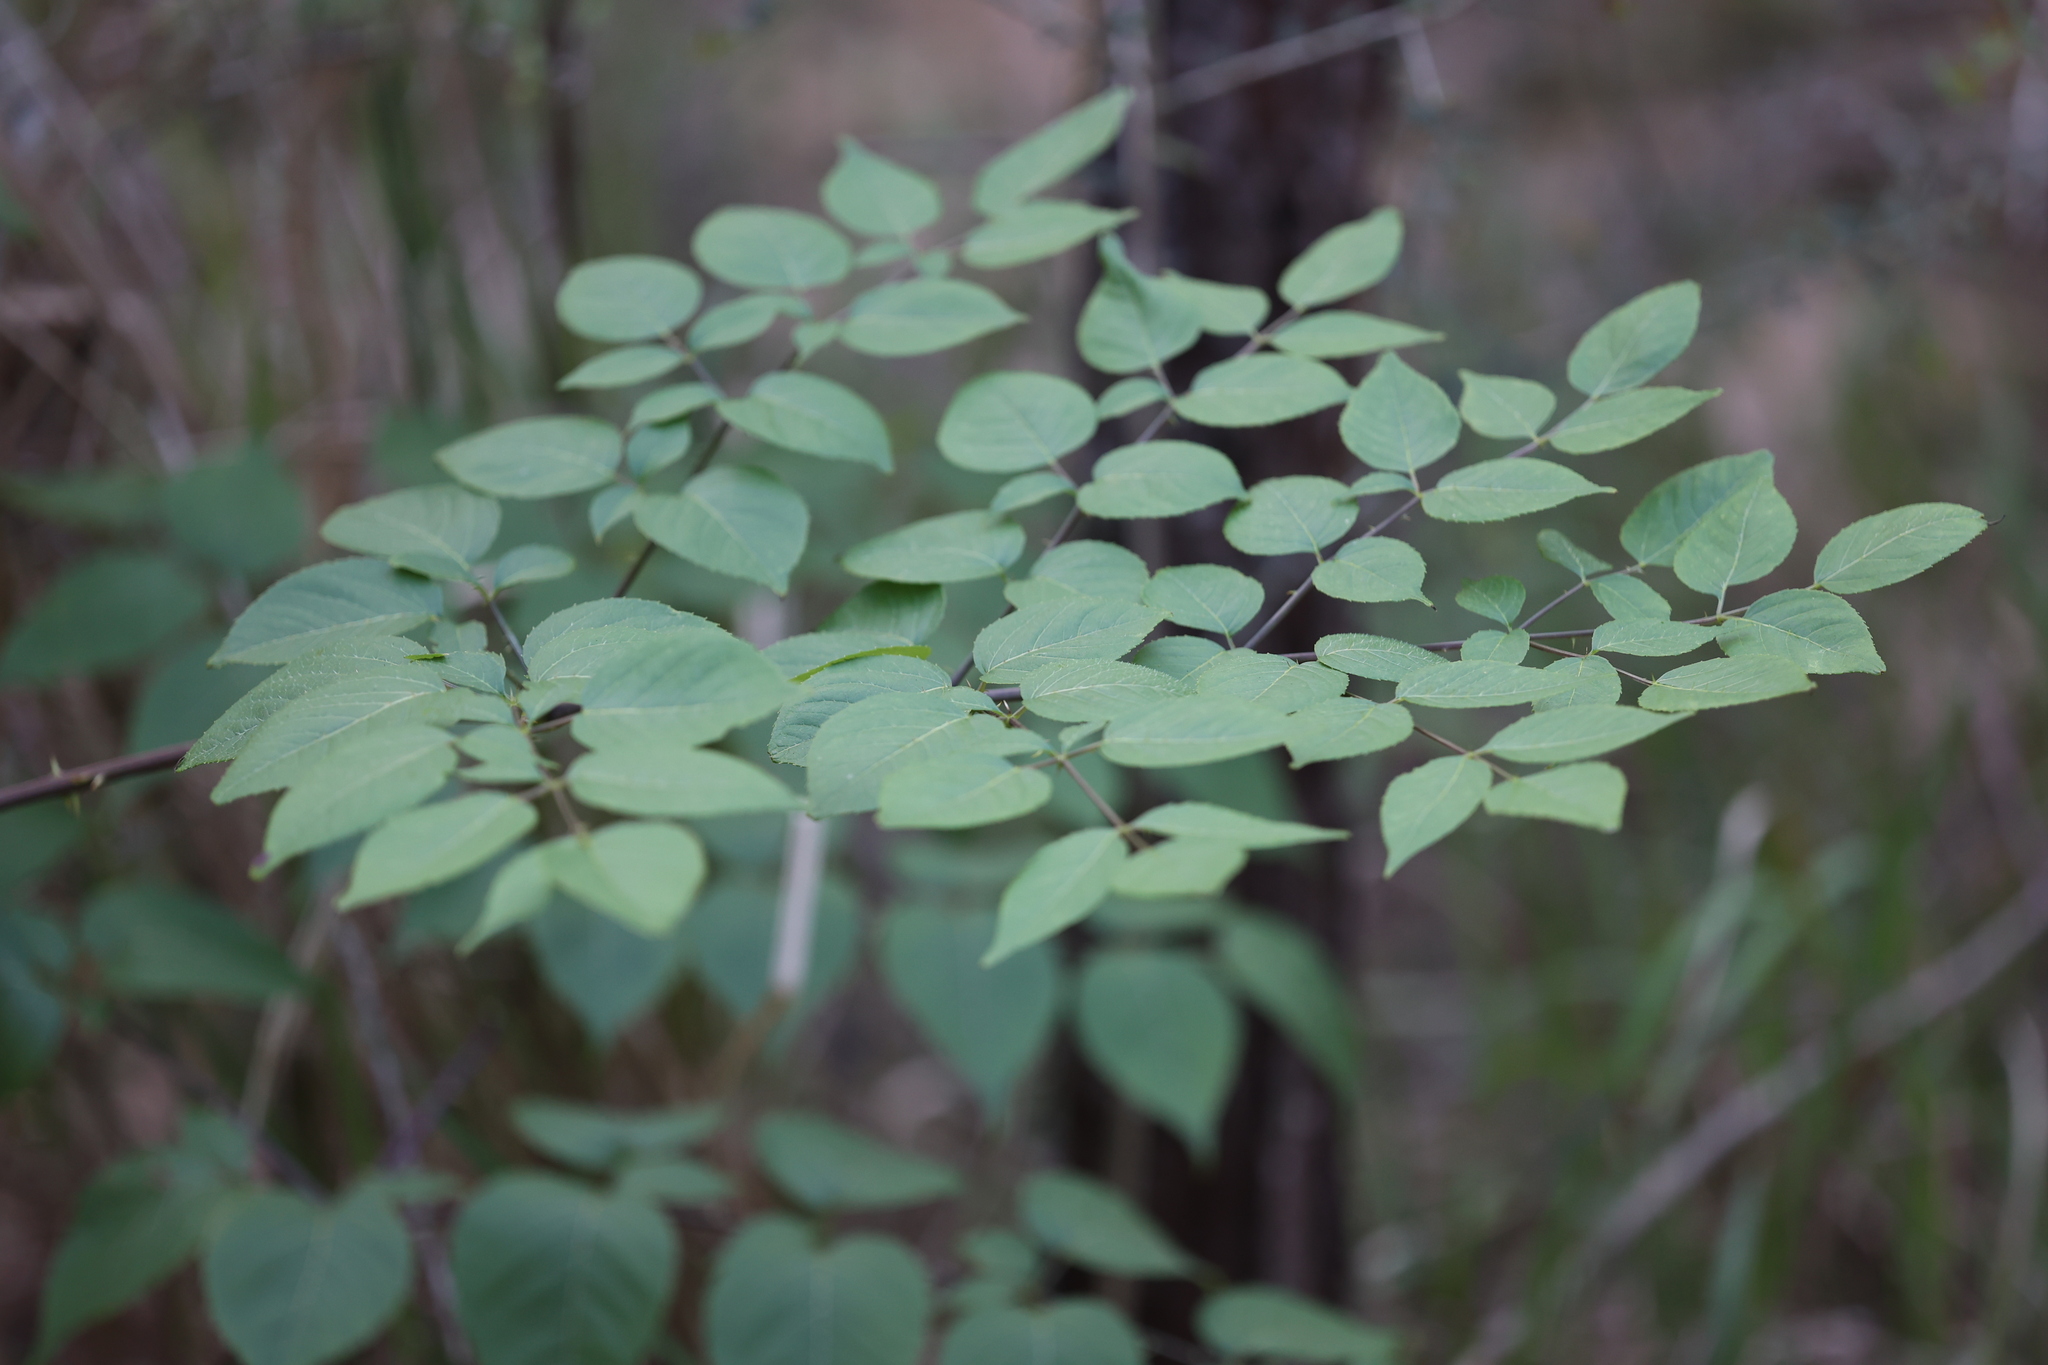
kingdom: Plantae
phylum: Tracheophyta
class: Magnoliopsida
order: Apiales
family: Araliaceae
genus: Aralia
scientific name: Aralia spinosa
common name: Hercules'-club
